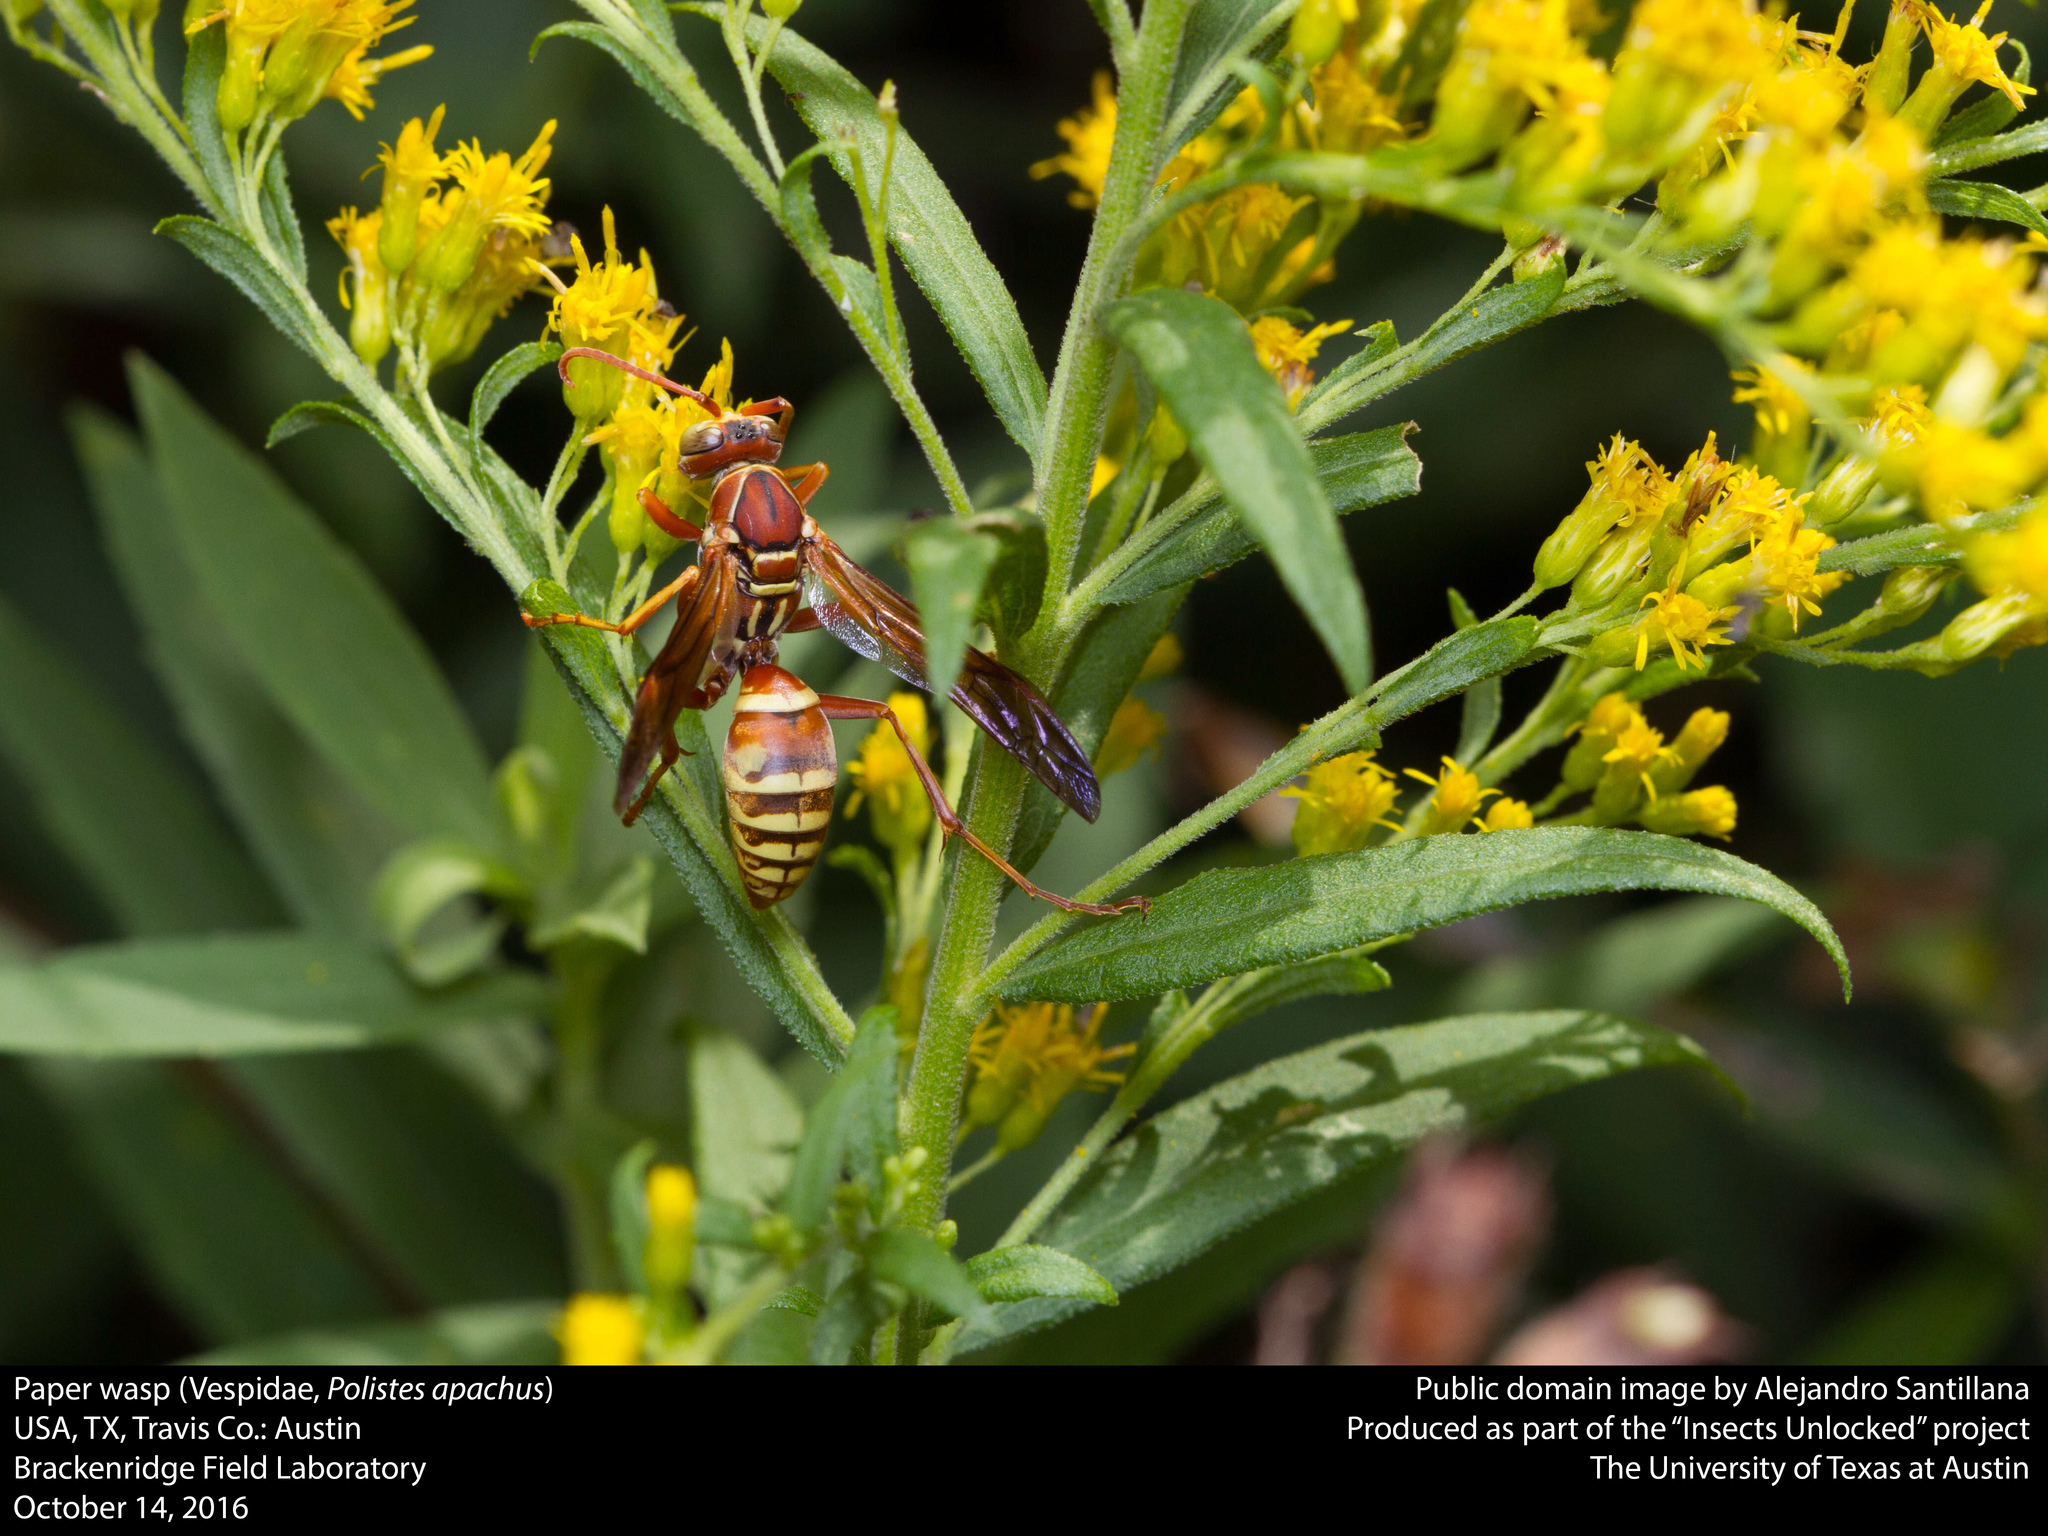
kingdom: Animalia
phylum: Arthropoda
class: Insecta
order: Hymenoptera
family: Eumenidae
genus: Polistes
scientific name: Polistes apachus
